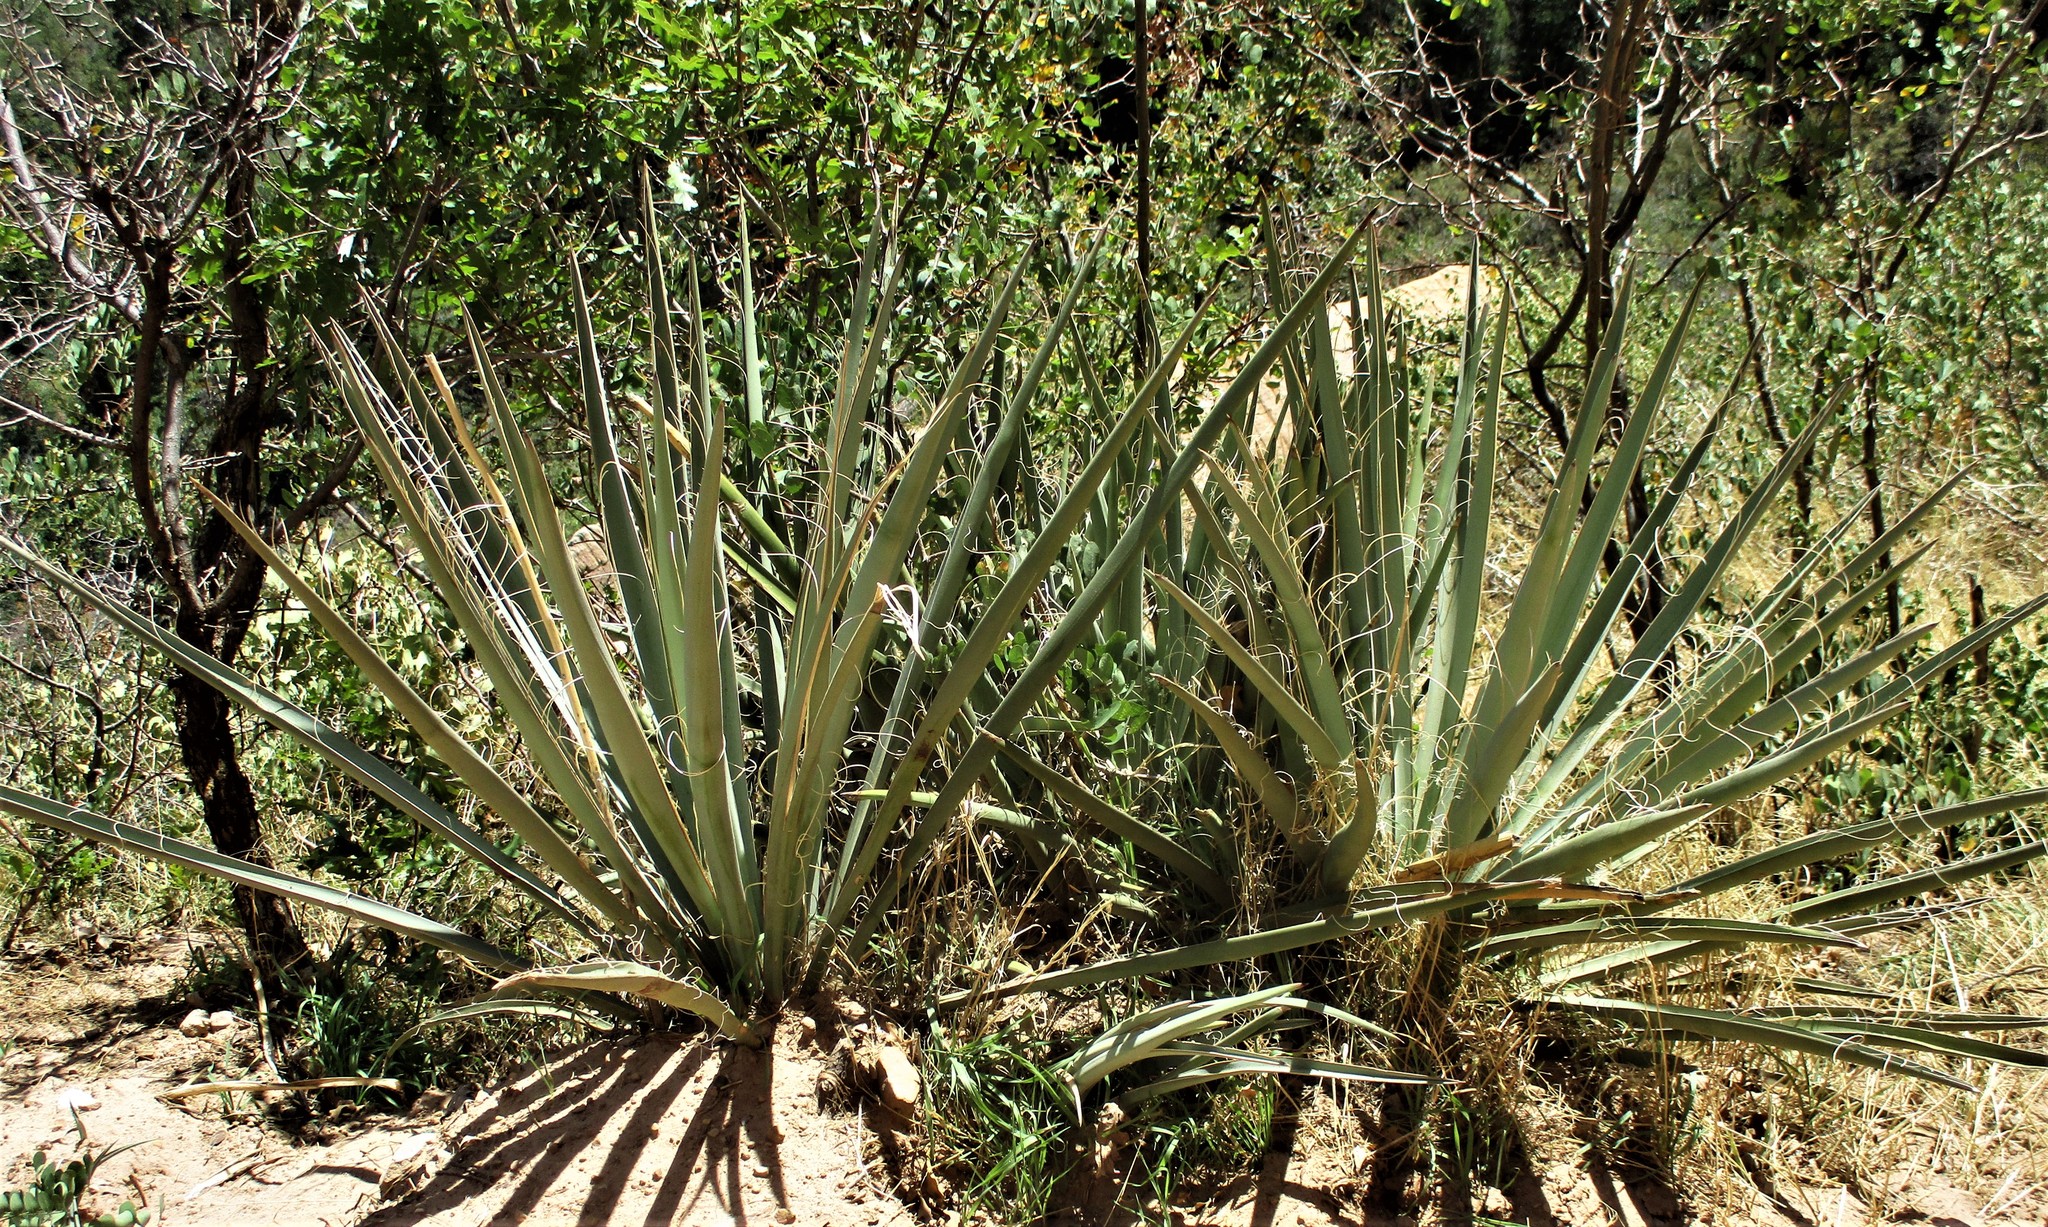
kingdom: Plantae
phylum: Tracheophyta
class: Liliopsida
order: Asparagales
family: Asparagaceae
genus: Yucca
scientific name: Yucca baccata
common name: Banana yucca
